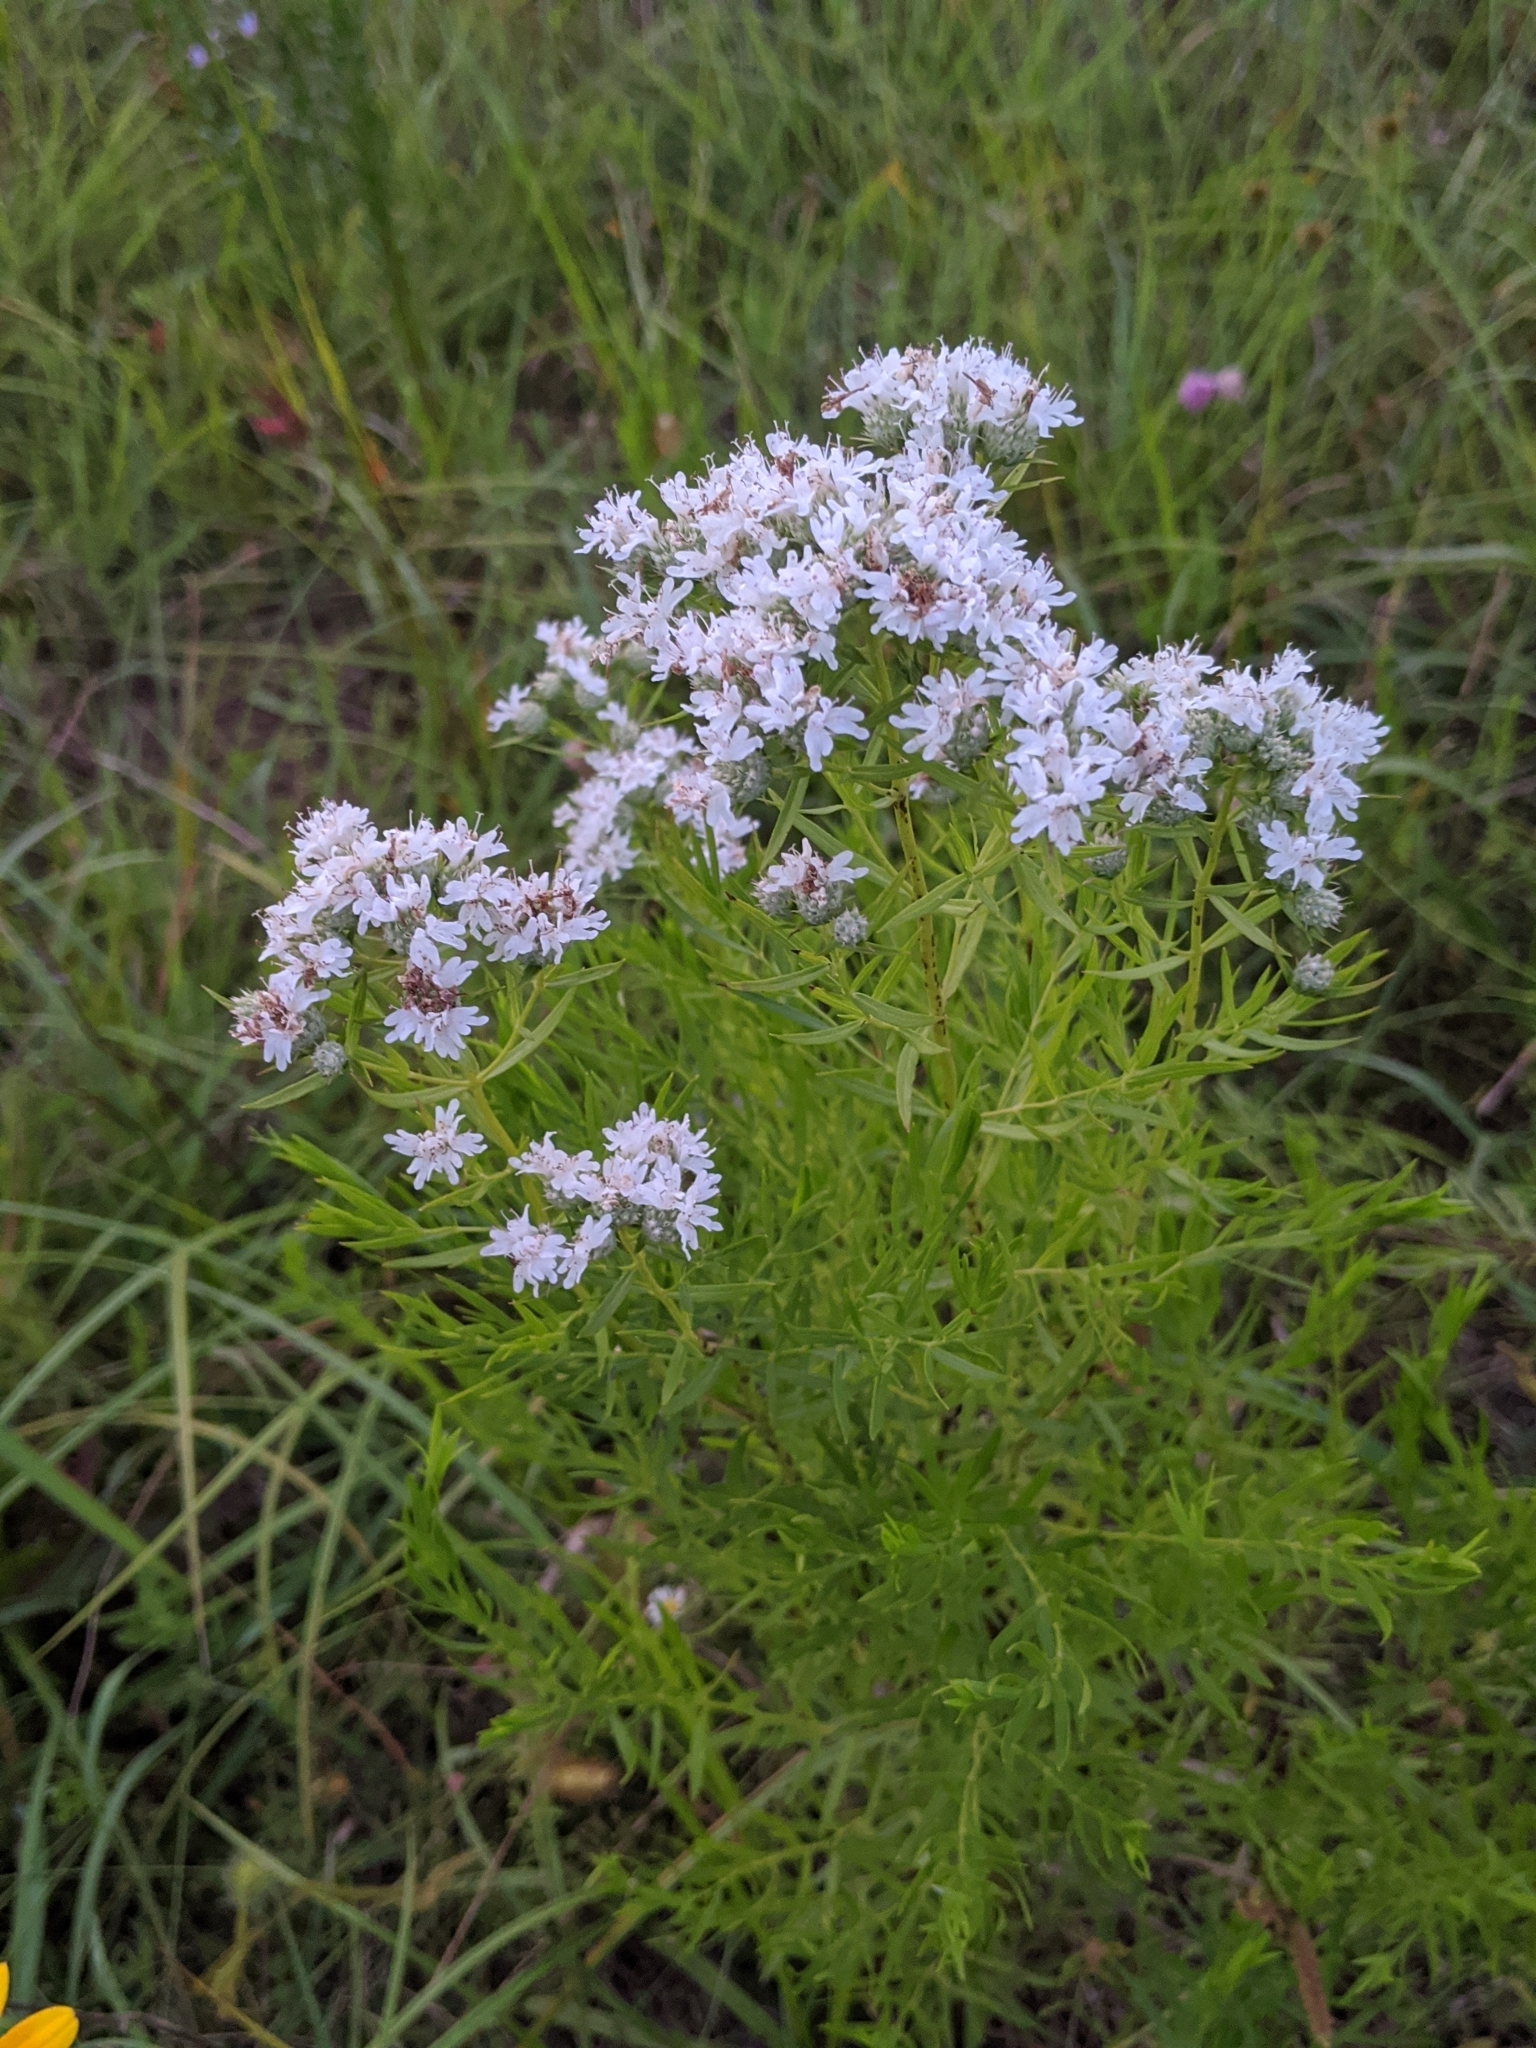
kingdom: Plantae
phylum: Tracheophyta
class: Magnoliopsida
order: Lamiales
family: Lamiaceae
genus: Pycnanthemum
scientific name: Pycnanthemum tenuifolium
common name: Narrow-leaf mountain-mint
